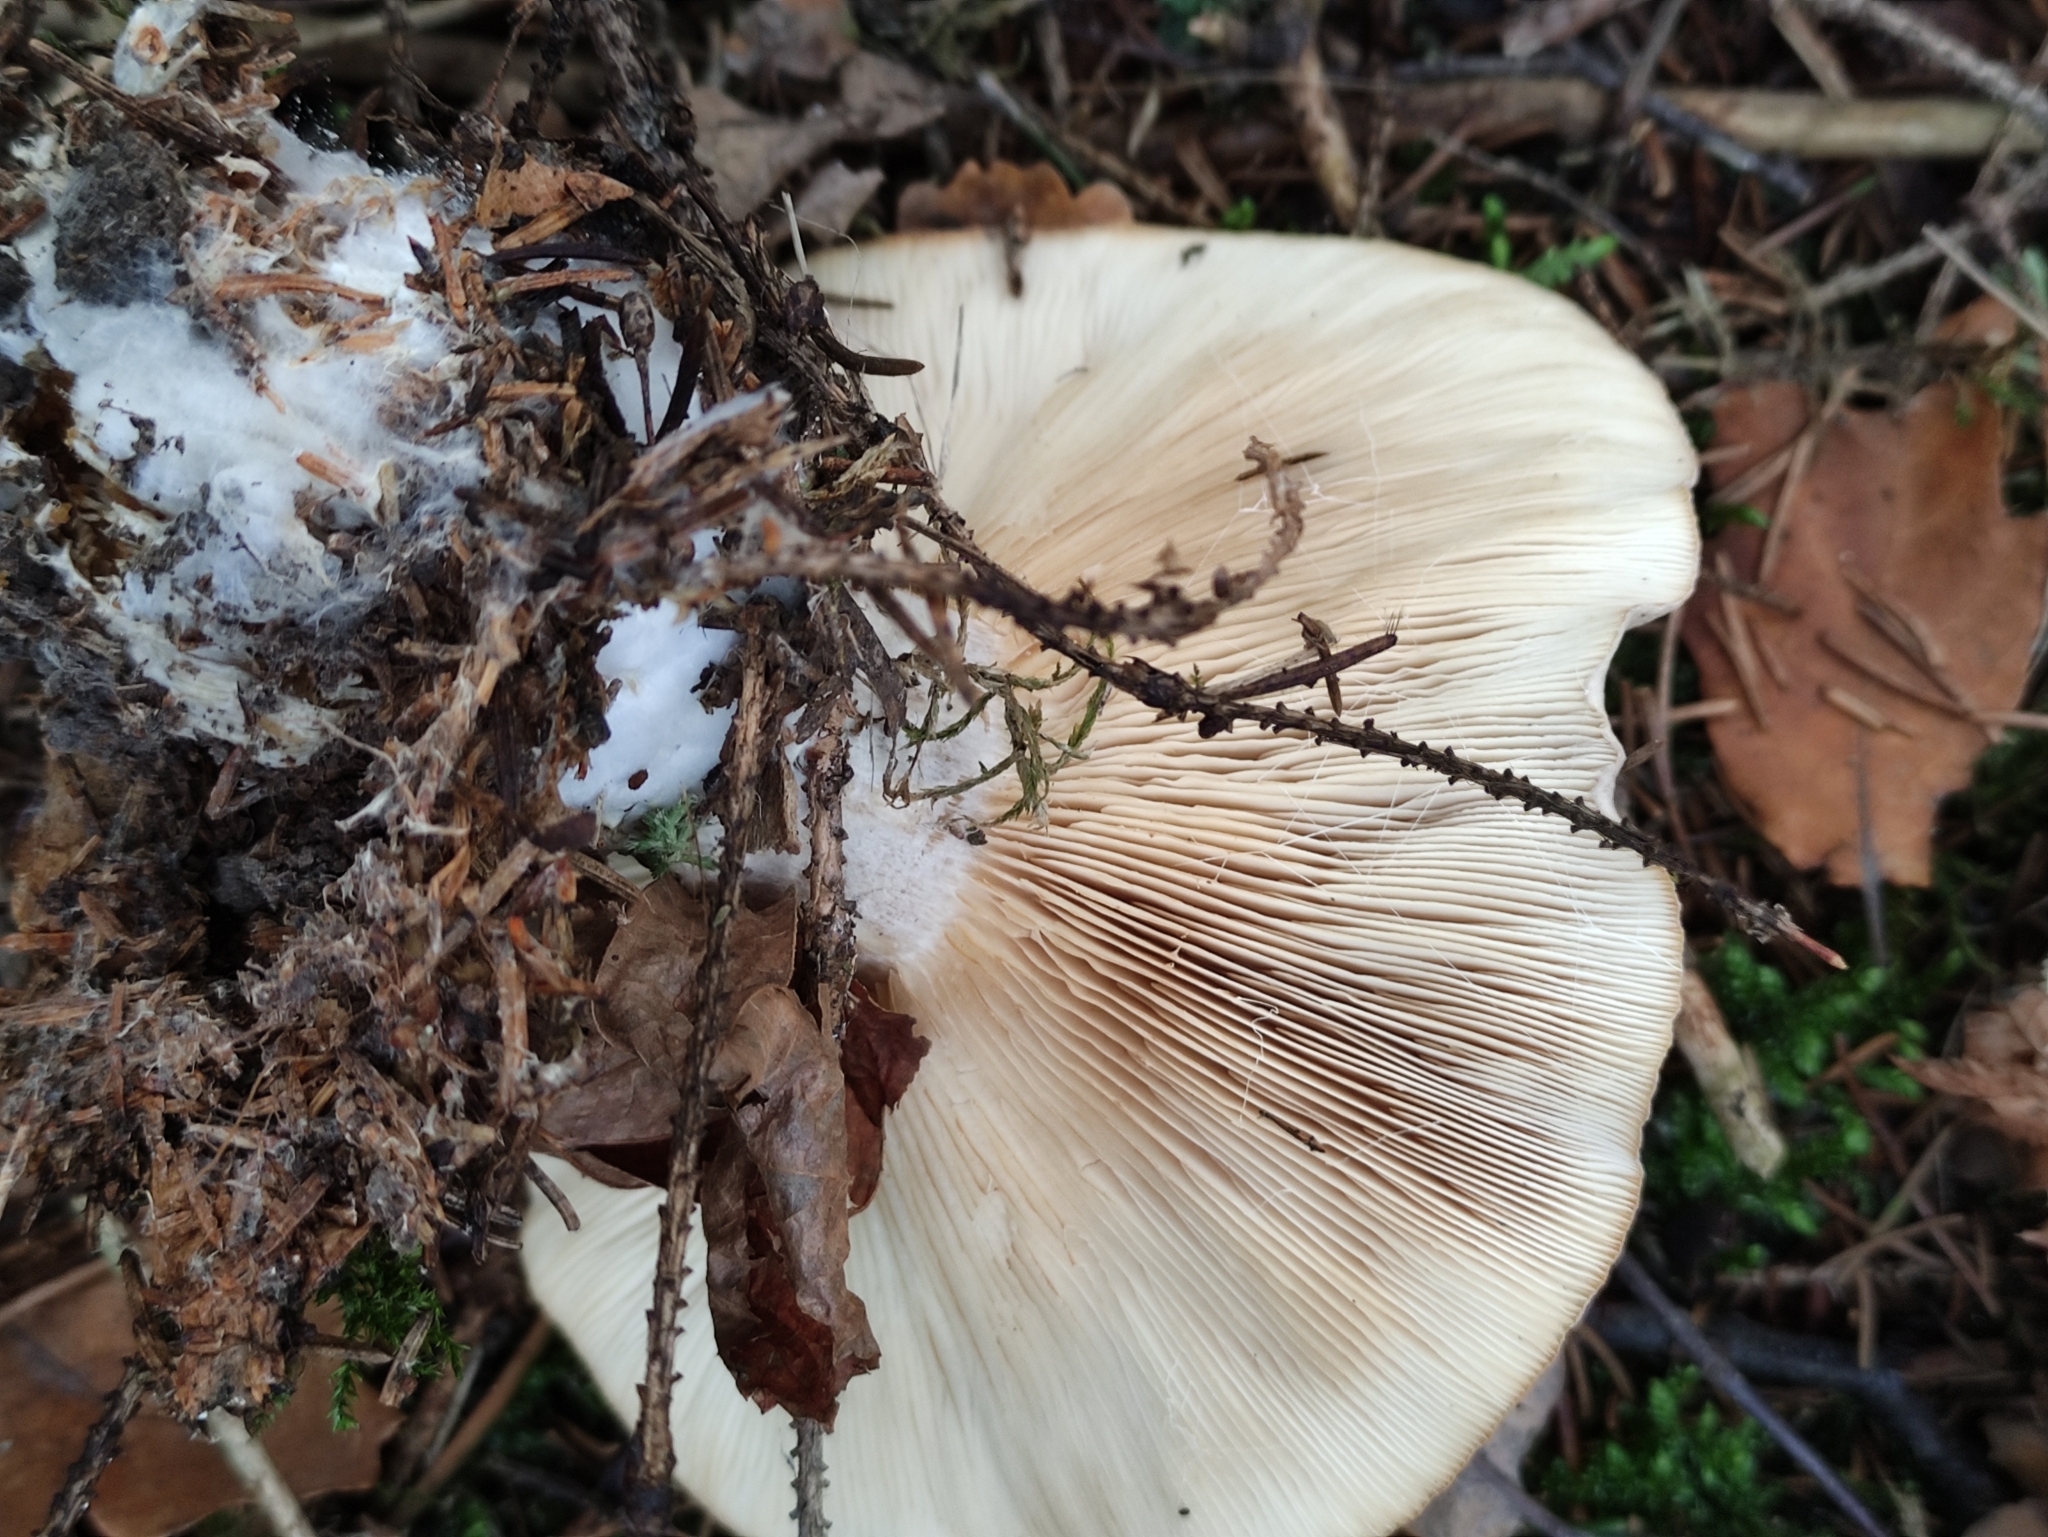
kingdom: Fungi
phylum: Basidiomycota
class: Agaricomycetes
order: Agaricales
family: Tricholomataceae
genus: Clitocybe
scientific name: Clitocybe nebularis
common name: Clouded agaric
